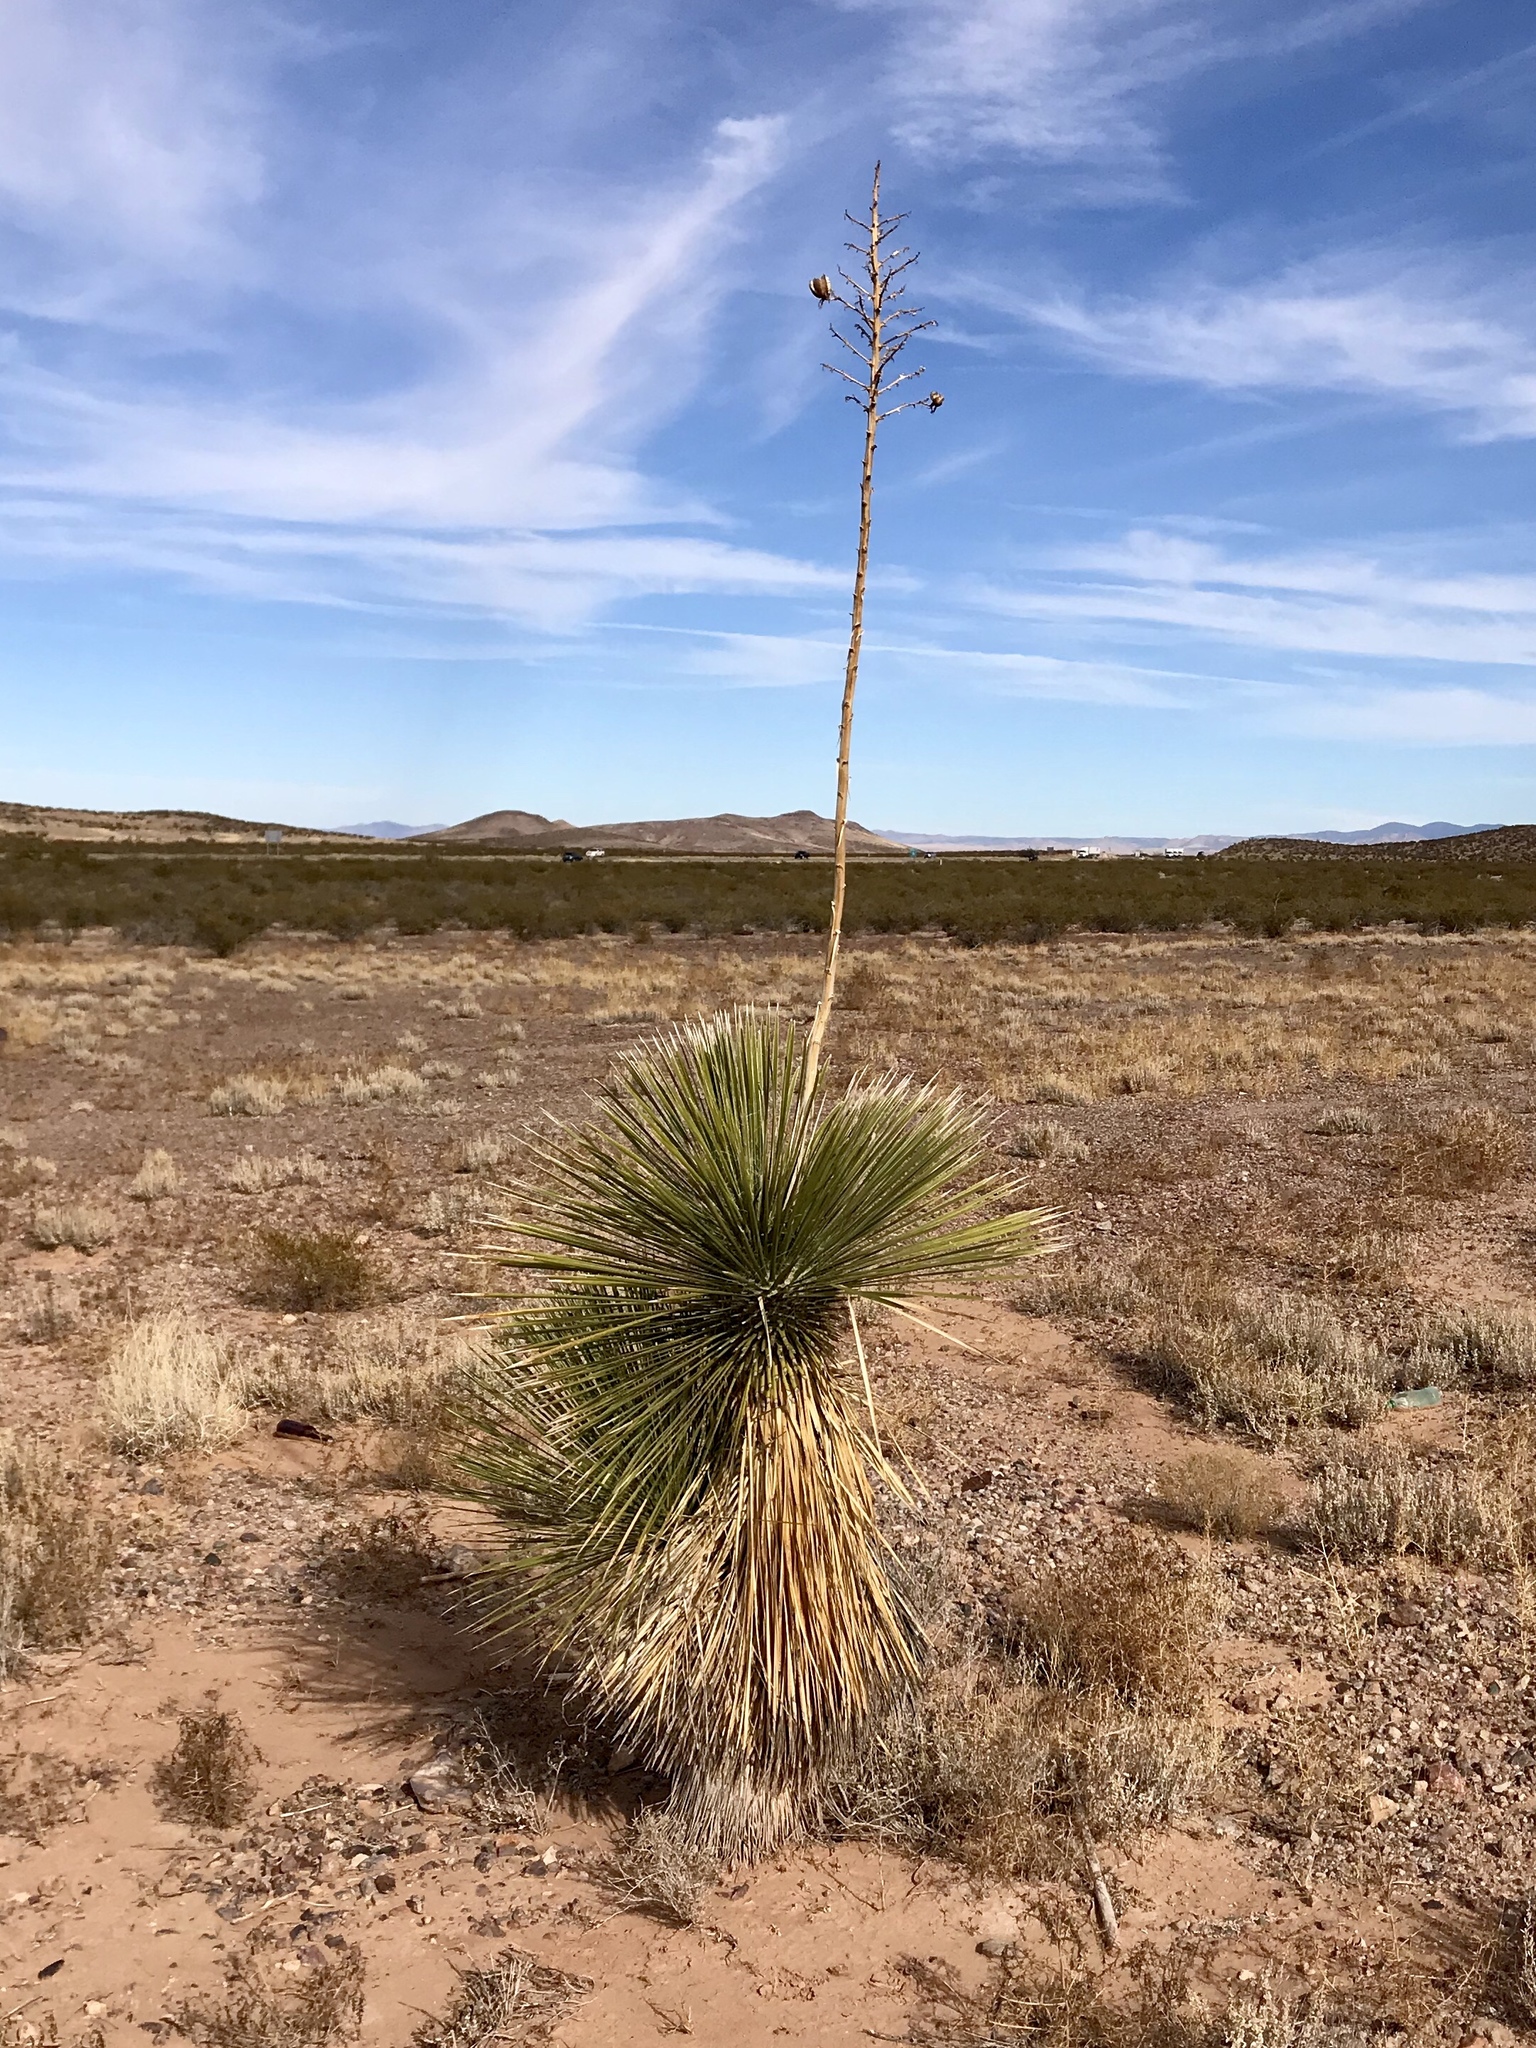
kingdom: Plantae
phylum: Tracheophyta
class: Liliopsida
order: Asparagales
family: Asparagaceae
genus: Yucca
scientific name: Yucca elata
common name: Palmella
